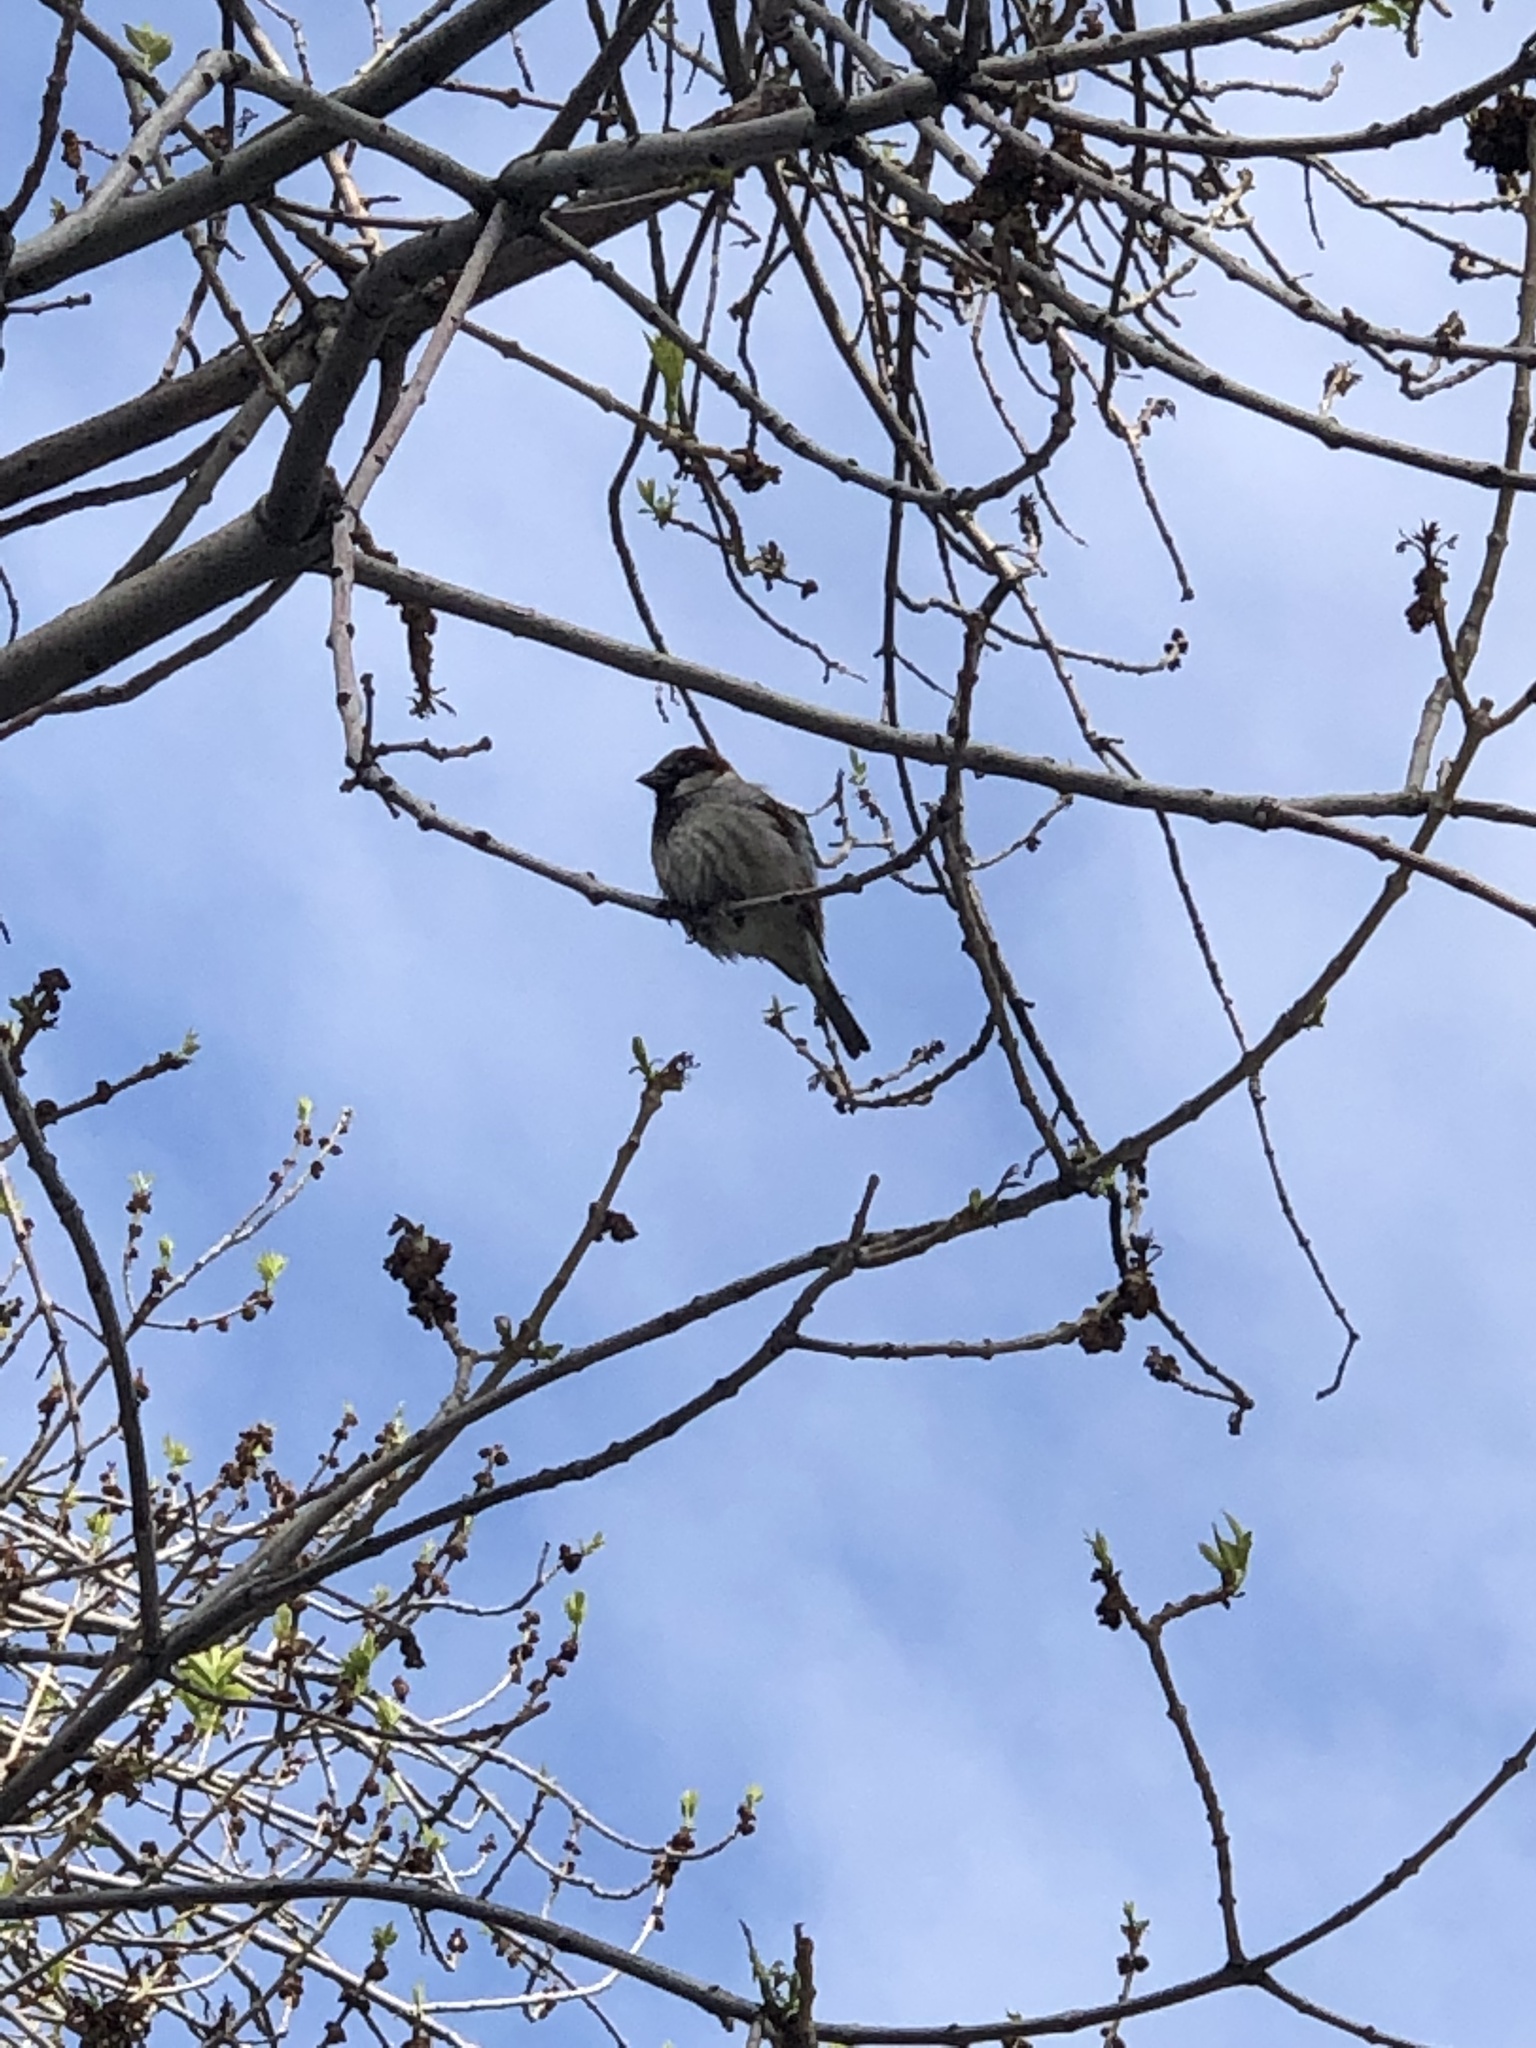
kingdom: Animalia
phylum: Chordata
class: Aves
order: Passeriformes
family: Passeridae
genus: Passer
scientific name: Passer domesticus
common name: House sparrow
